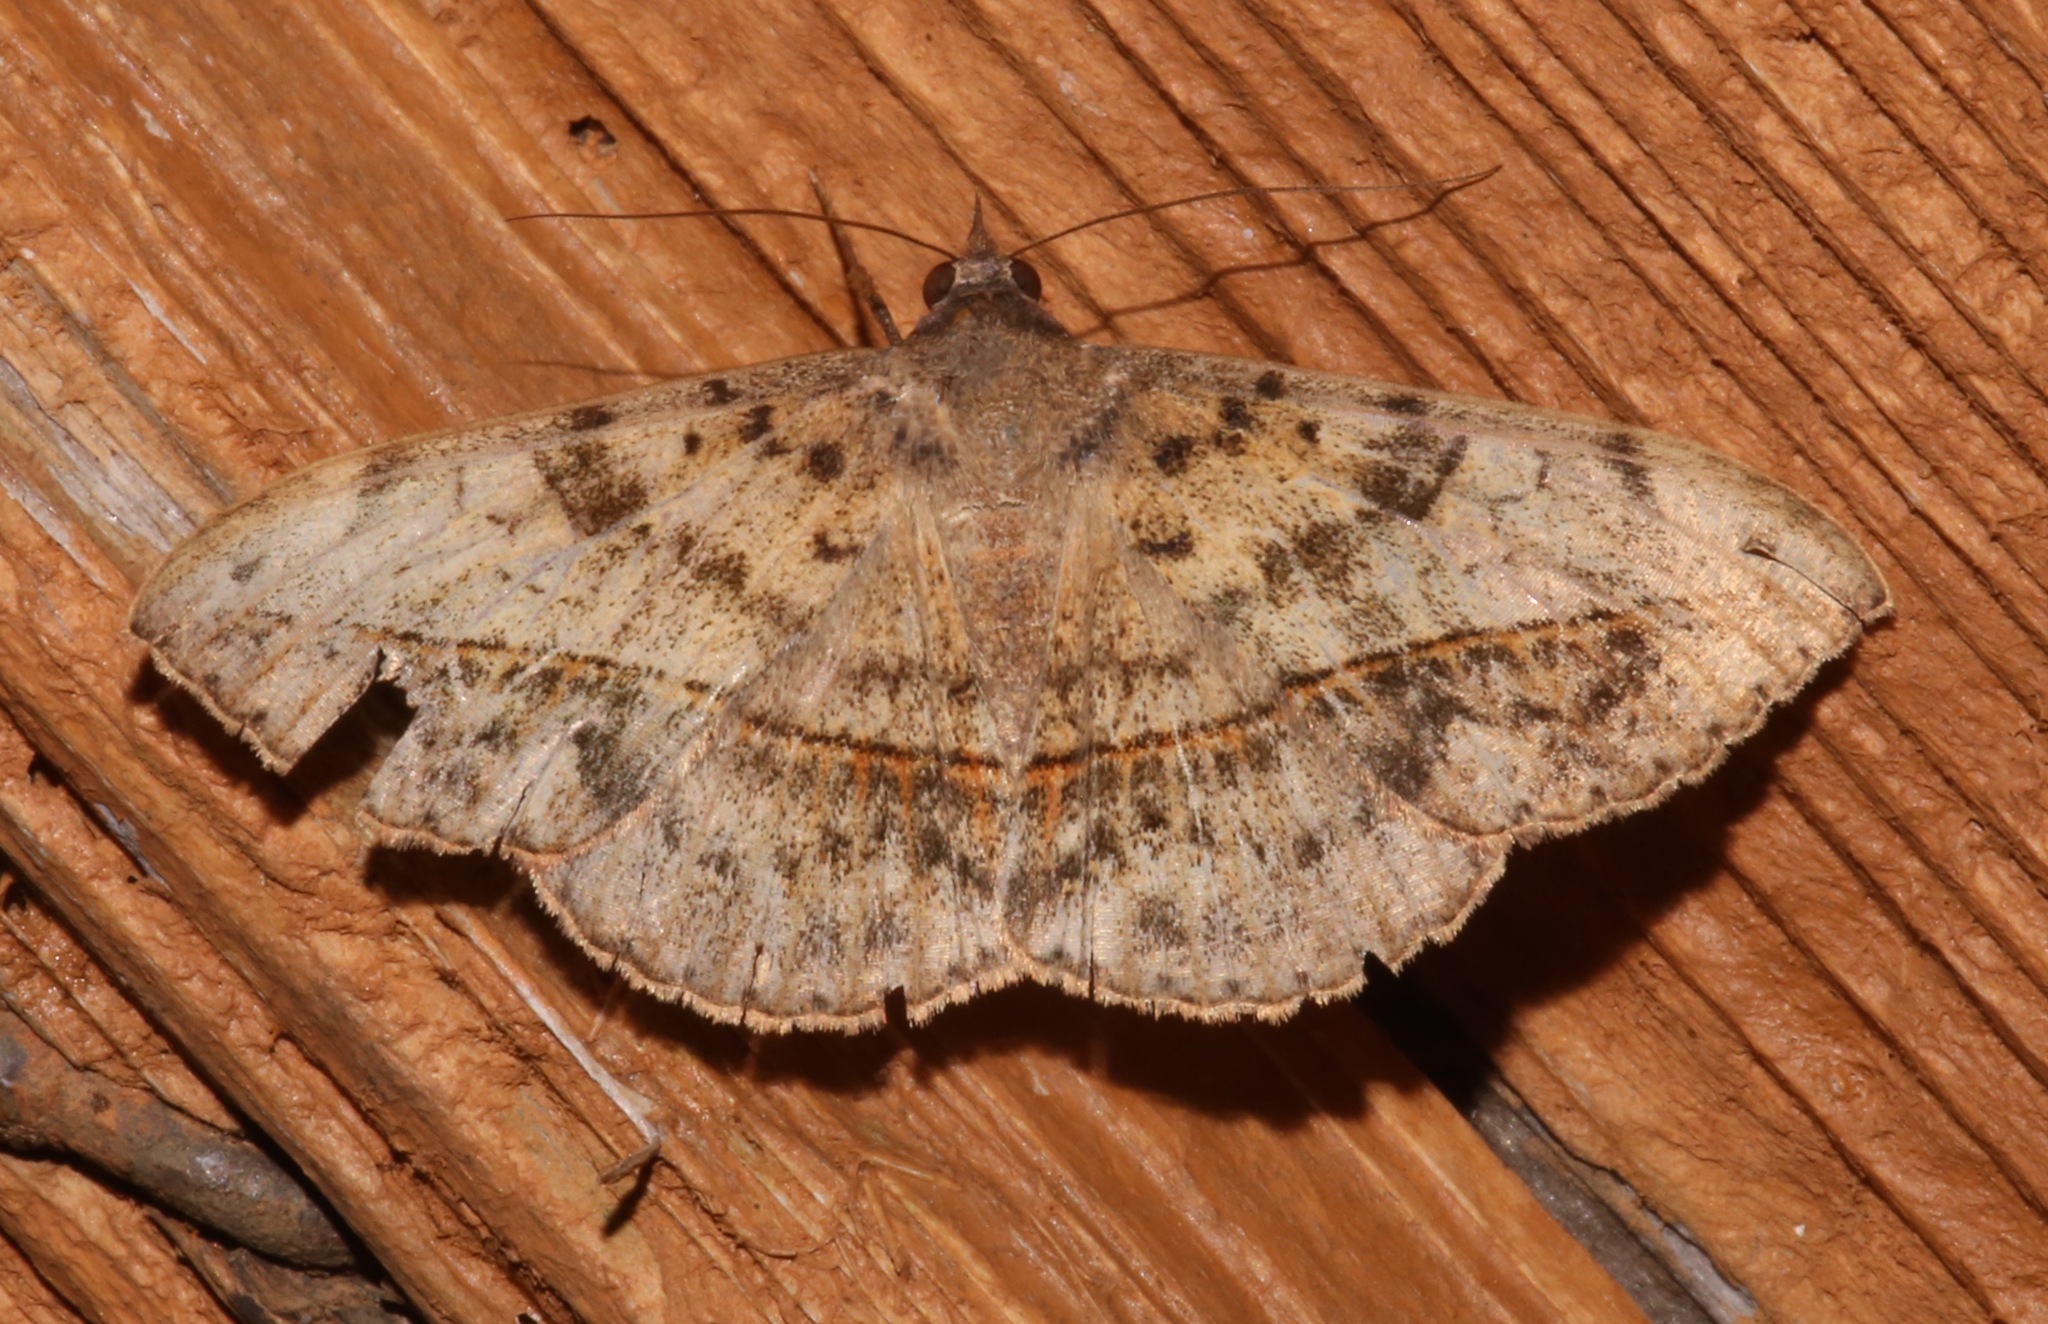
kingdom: Animalia
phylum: Arthropoda
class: Insecta
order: Lepidoptera
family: Erebidae
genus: Anticarsia
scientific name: Anticarsia gemmatalis
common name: Cutworm moth
